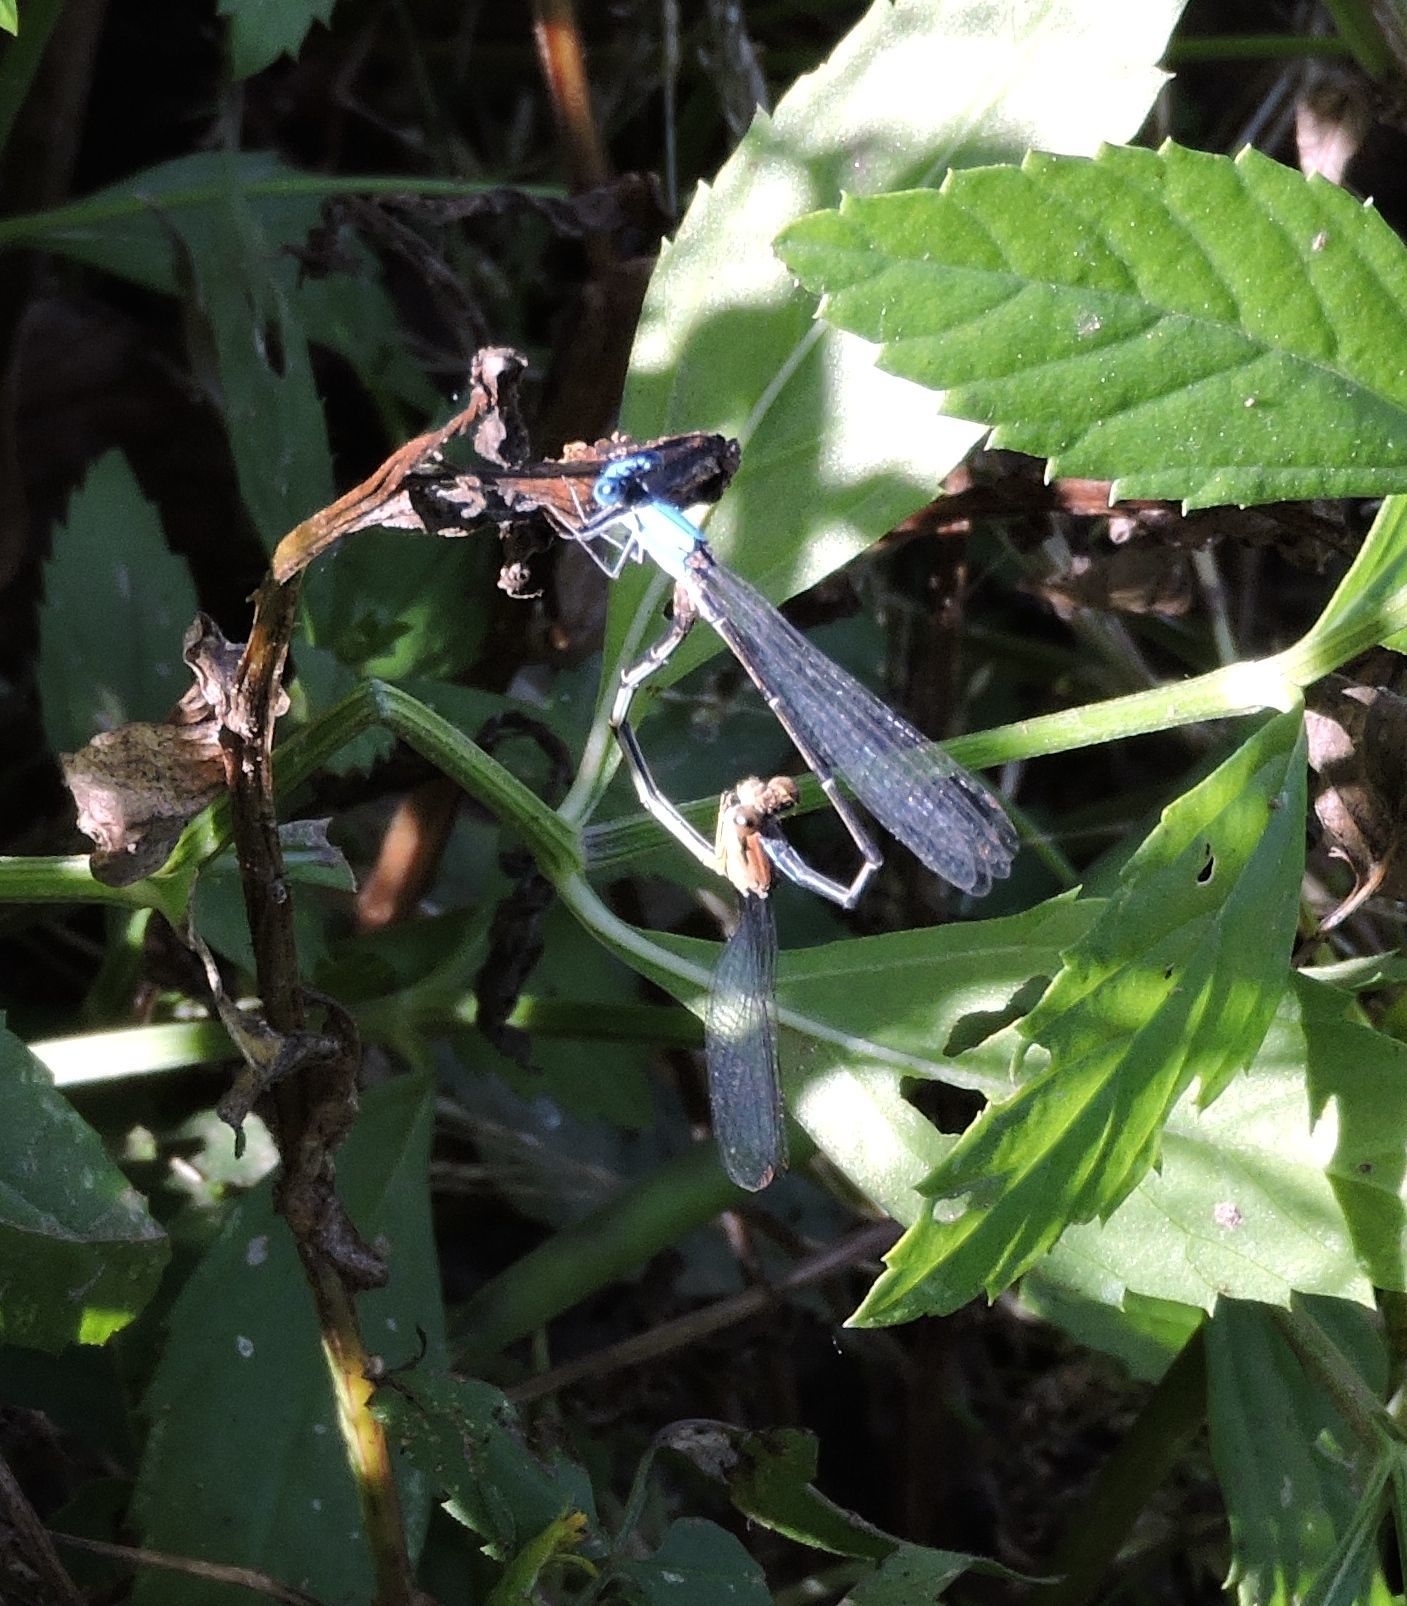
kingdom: Animalia
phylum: Arthropoda
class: Insecta
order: Odonata
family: Coenagrionidae
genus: Argia
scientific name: Argia apicalis
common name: Blue-fronted dancer
